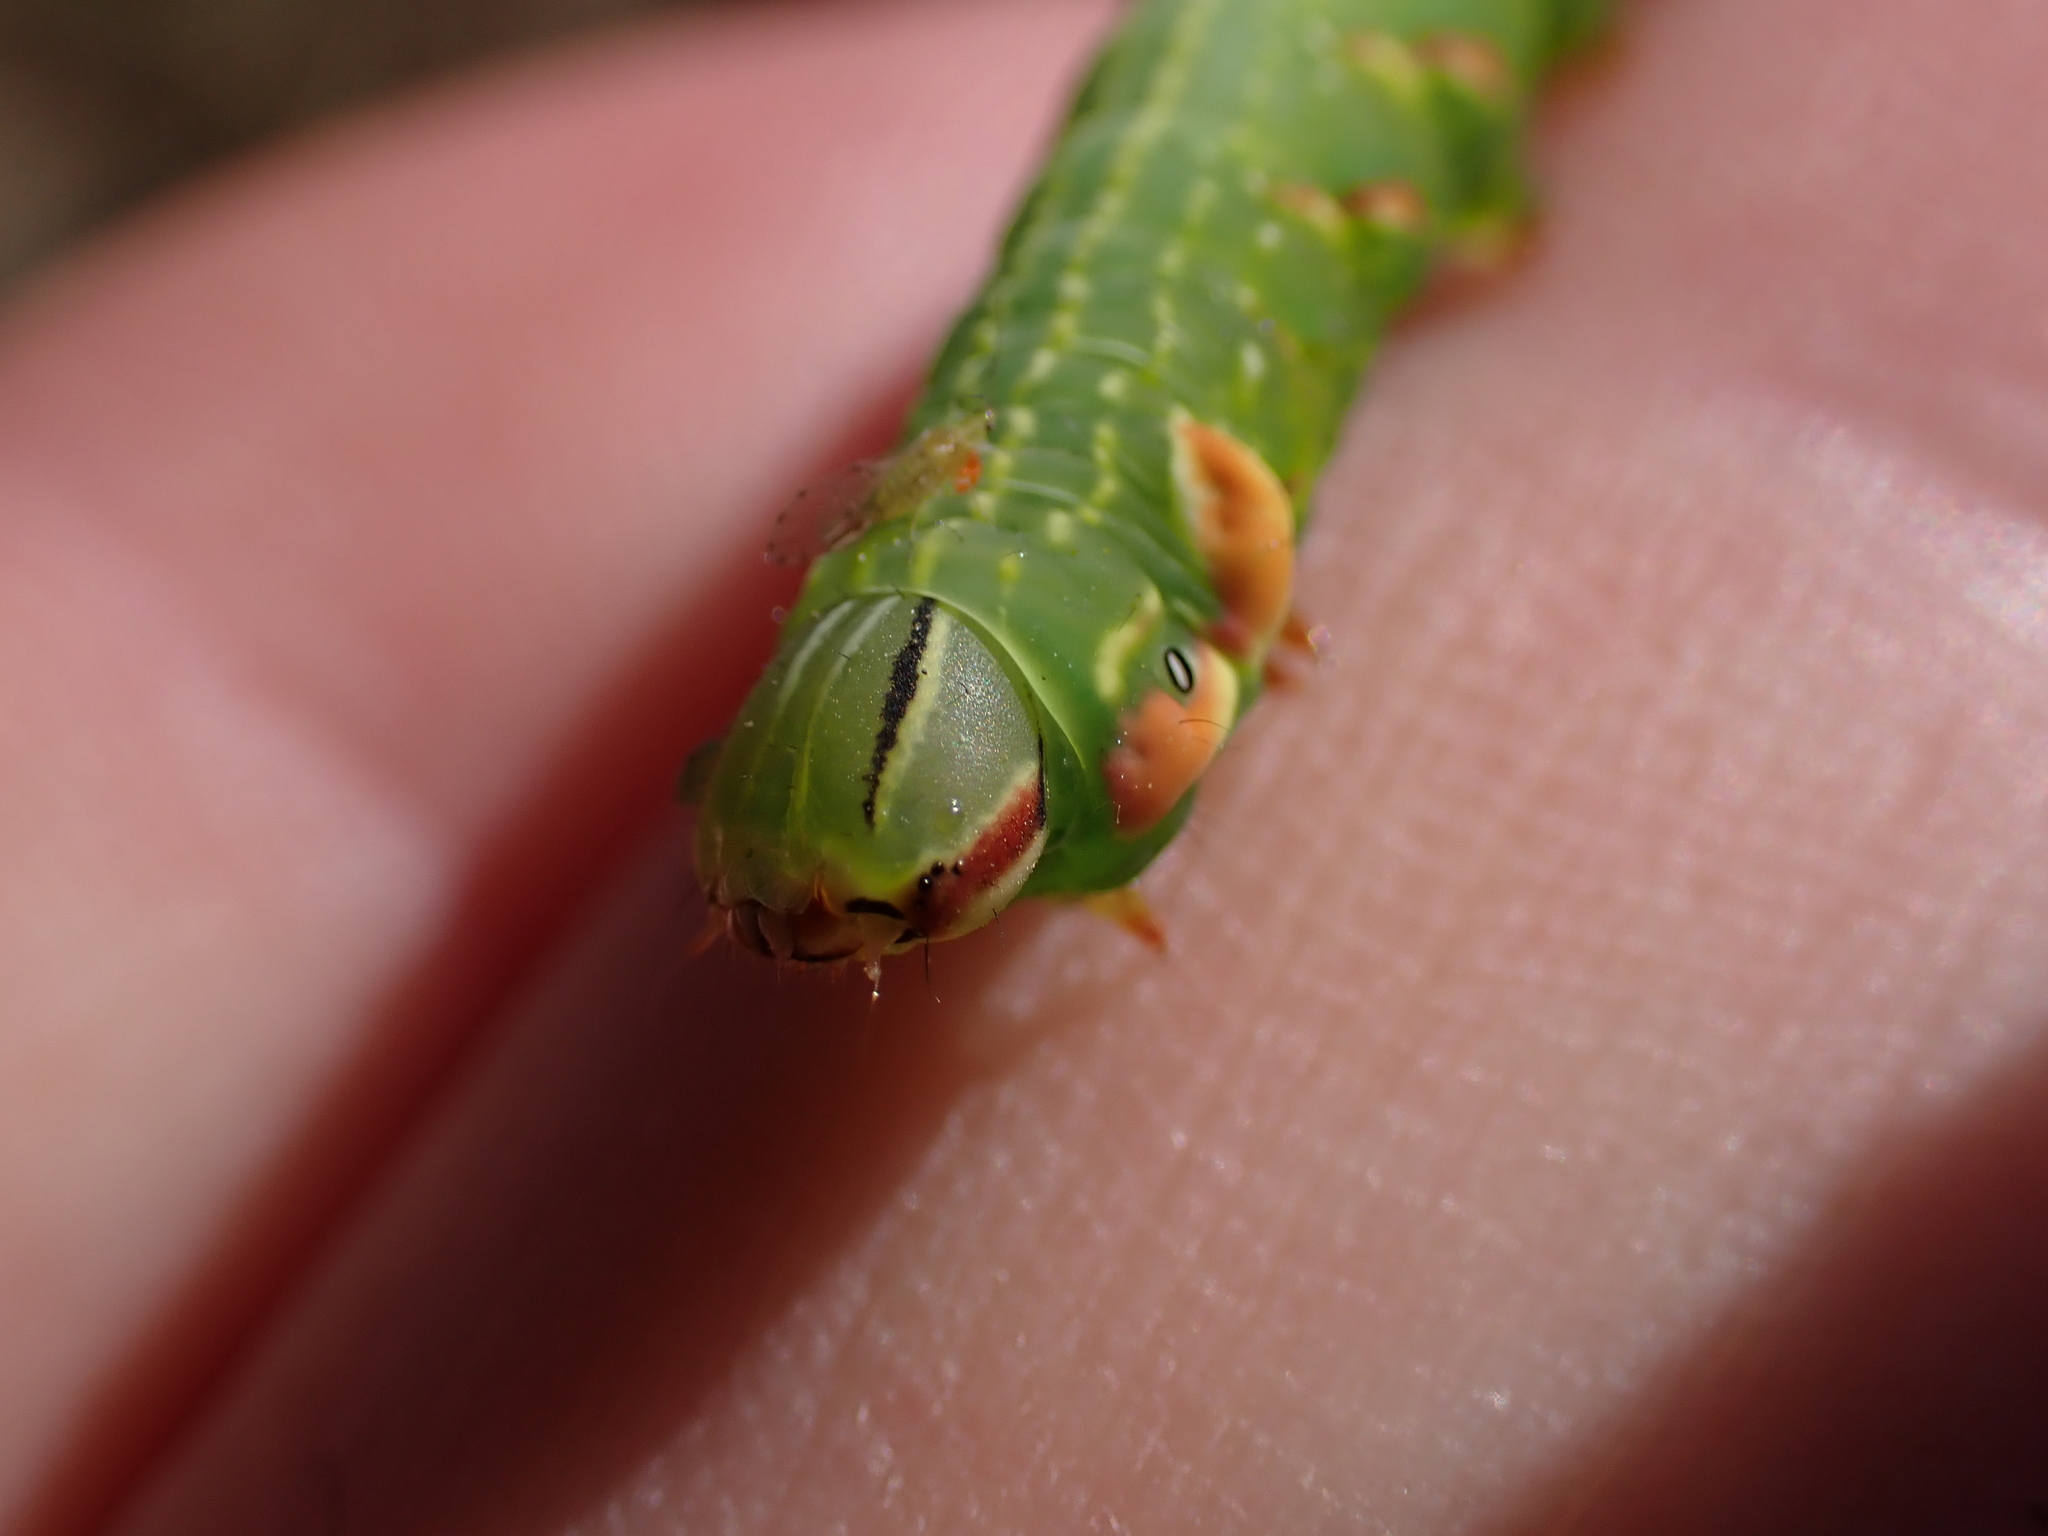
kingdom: Animalia
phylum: Arthropoda
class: Insecta
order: Lepidoptera
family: Notodontidae
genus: Peridea
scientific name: Peridea anceps
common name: Great prominent
